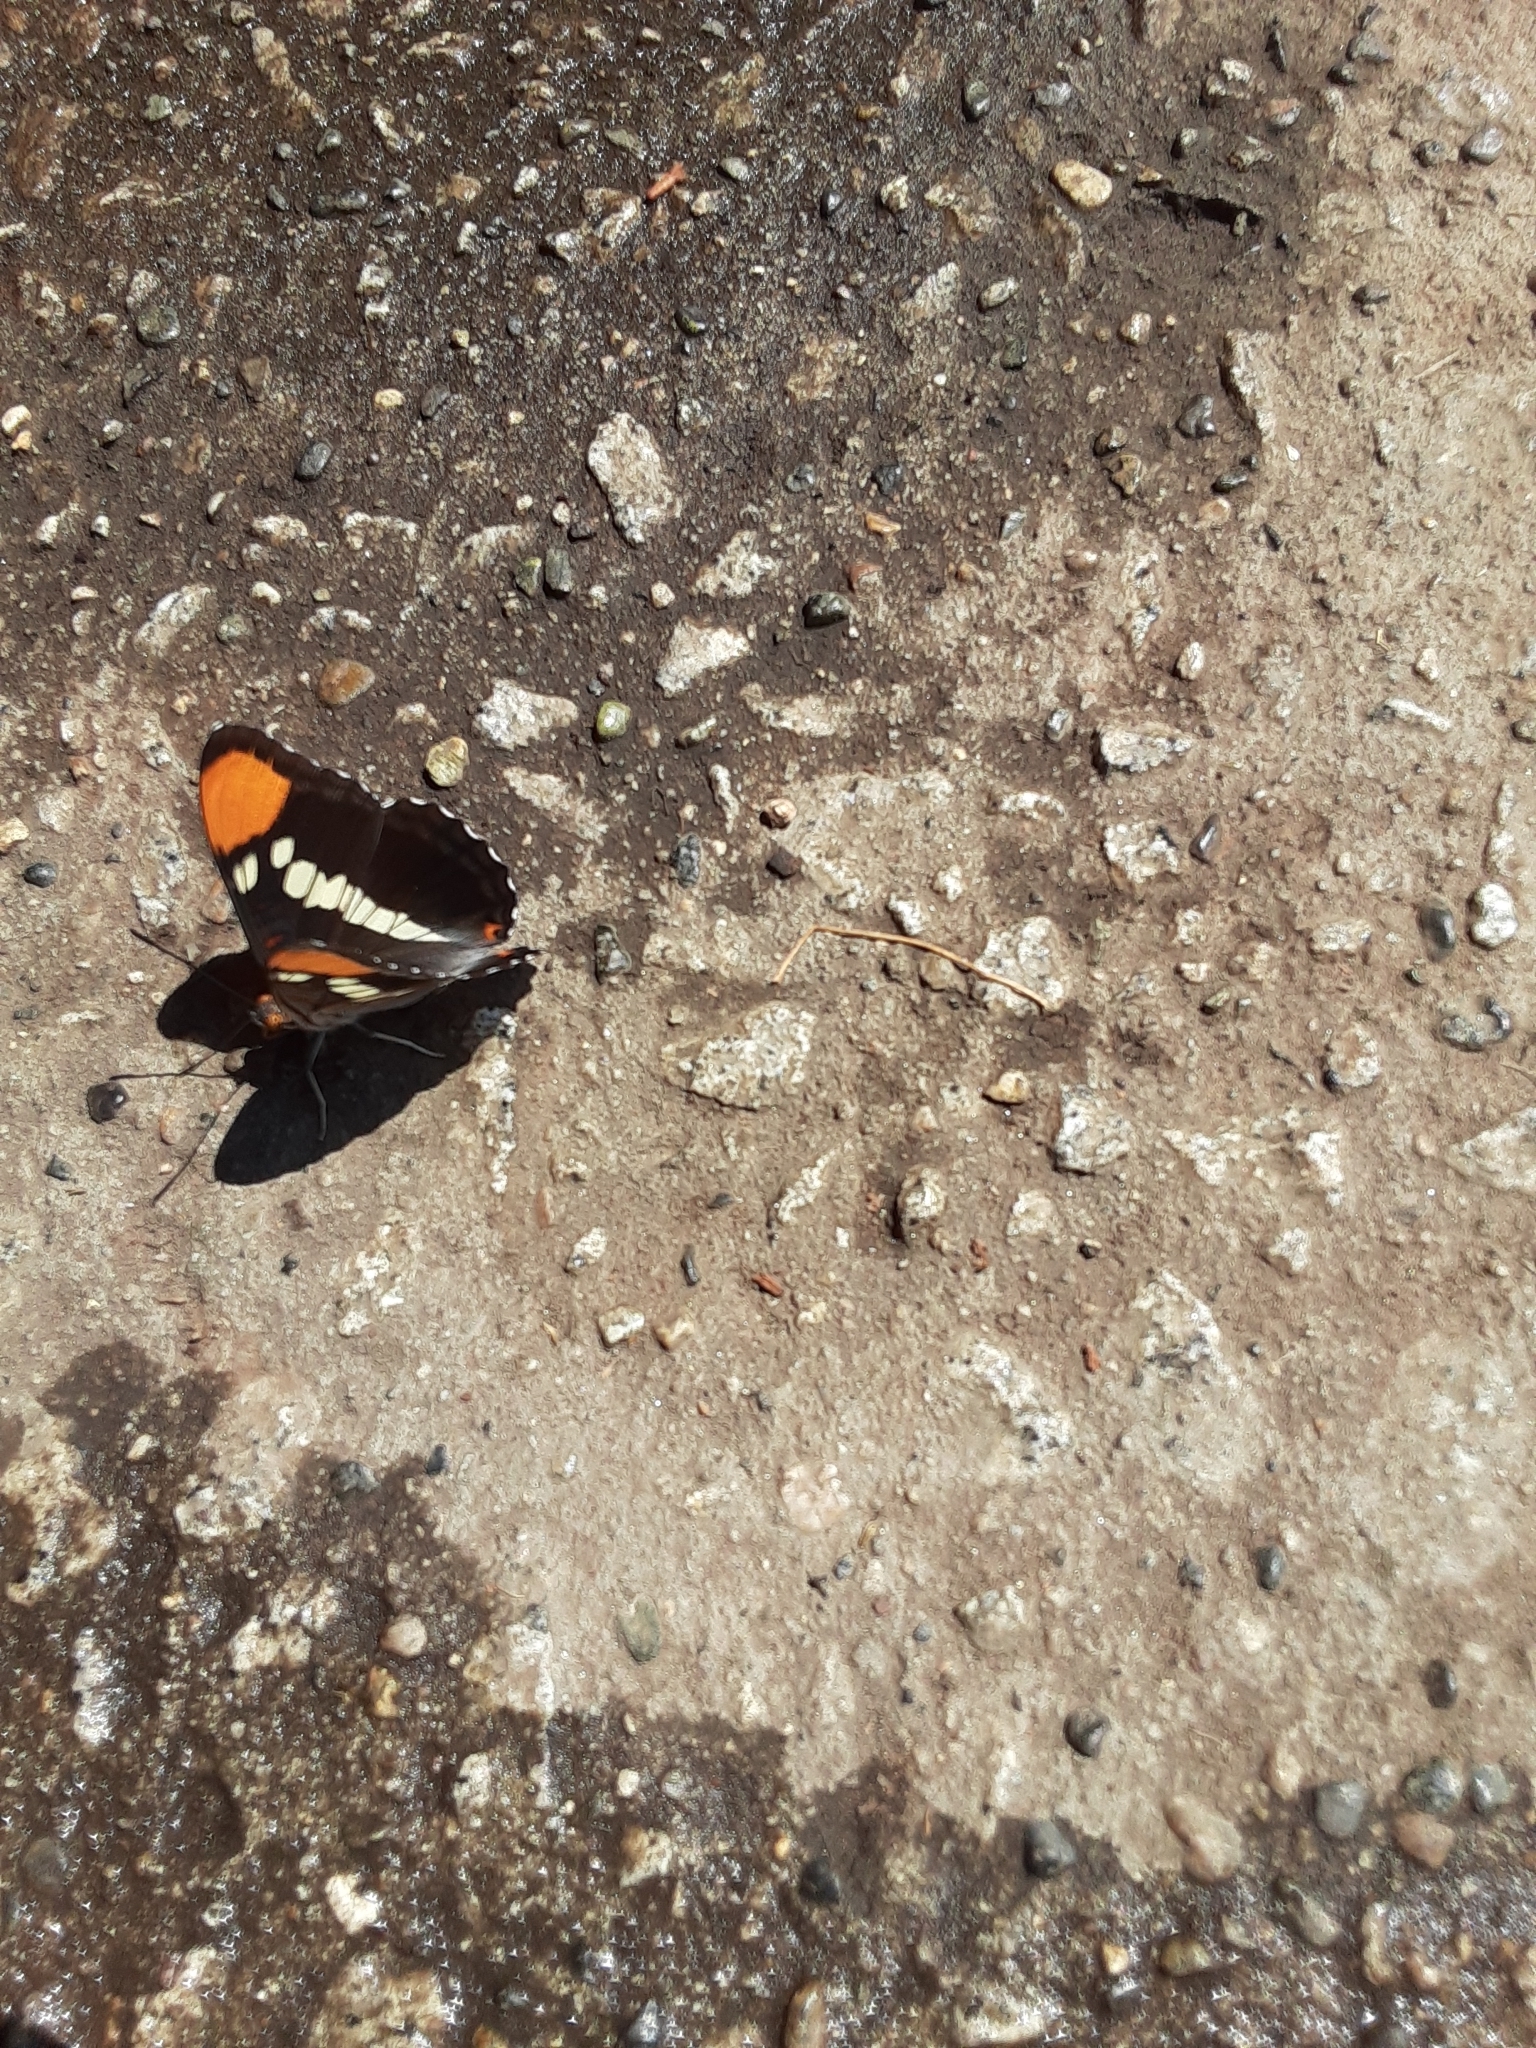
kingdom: Animalia
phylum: Arthropoda
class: Insecta
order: Lepidoptera
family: Nymphalidae
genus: Limenitis
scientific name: Limenitis bredowii
